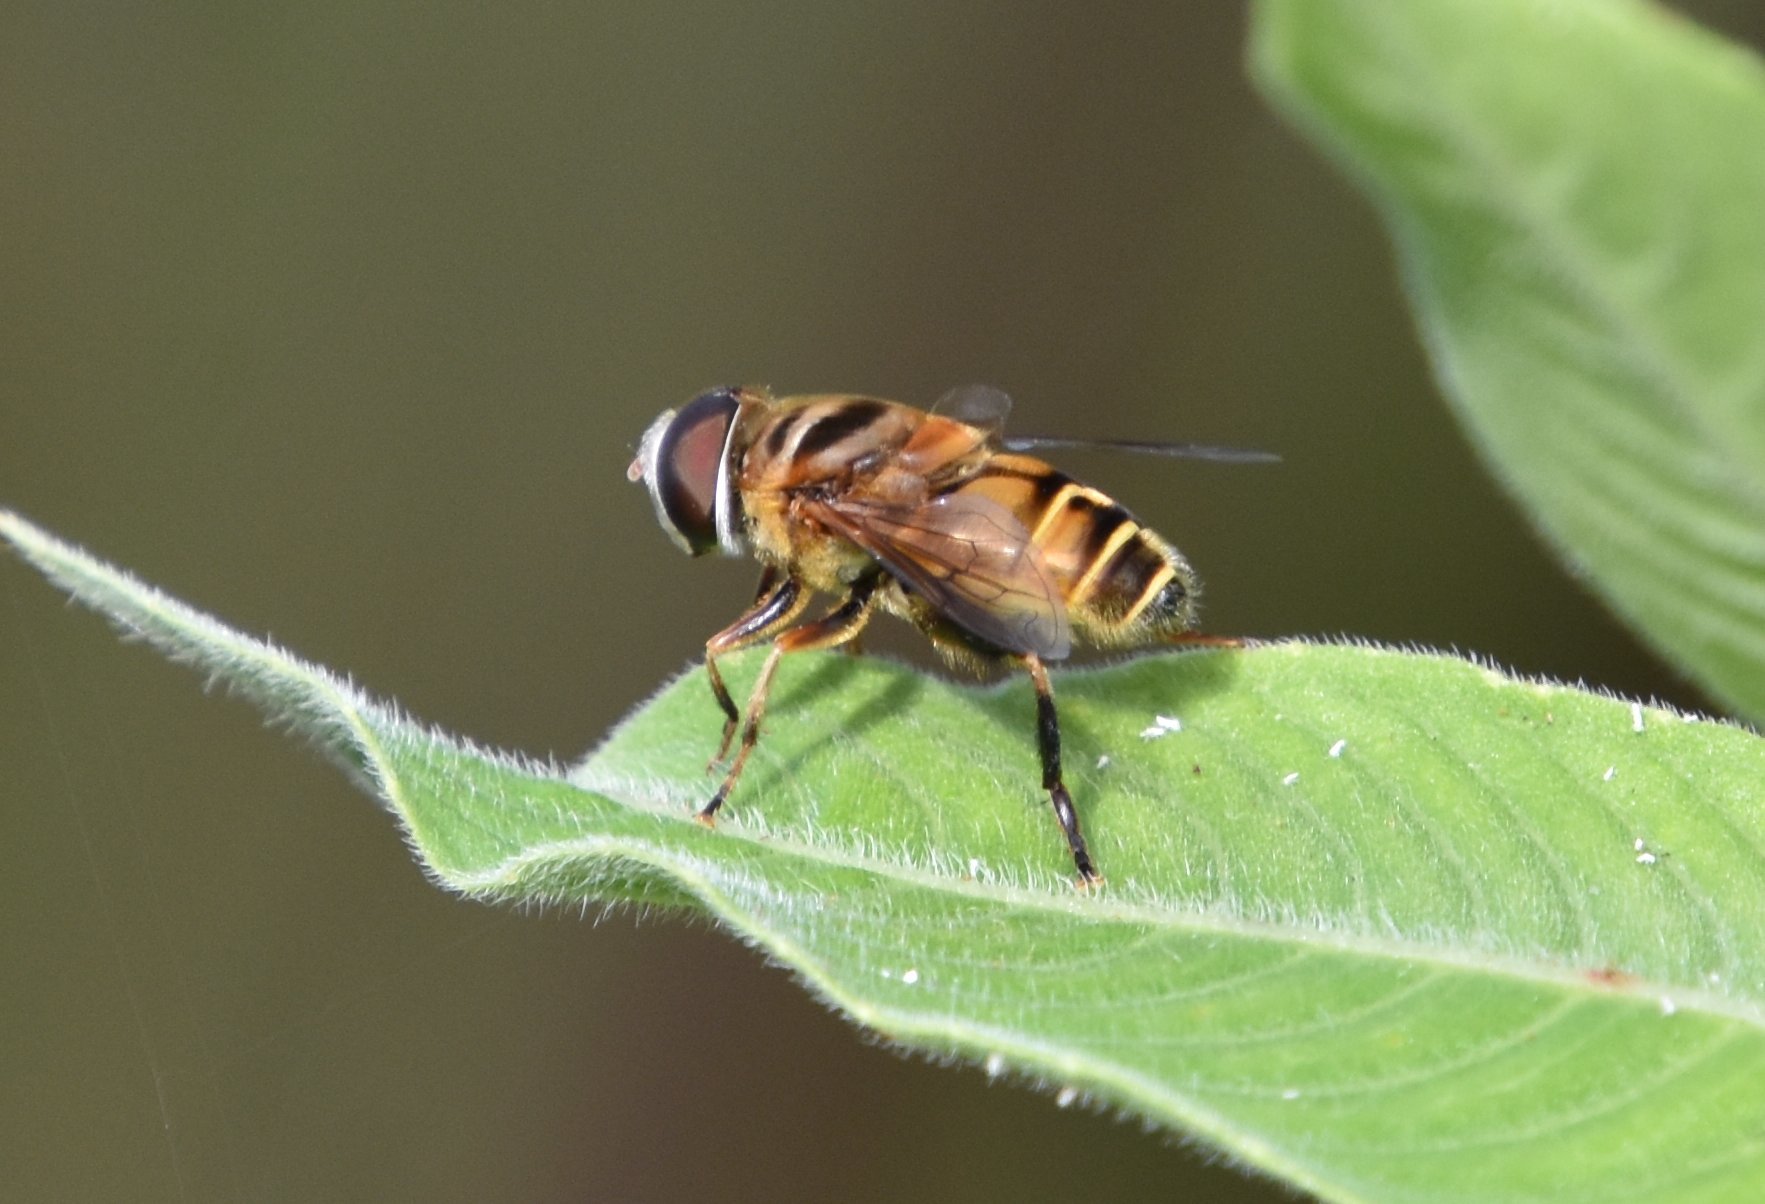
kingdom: Animalia
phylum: Arthropoda
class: Insecta
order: Diptera
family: Syrphidae
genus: Palpada
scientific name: Palpada vinetorum
